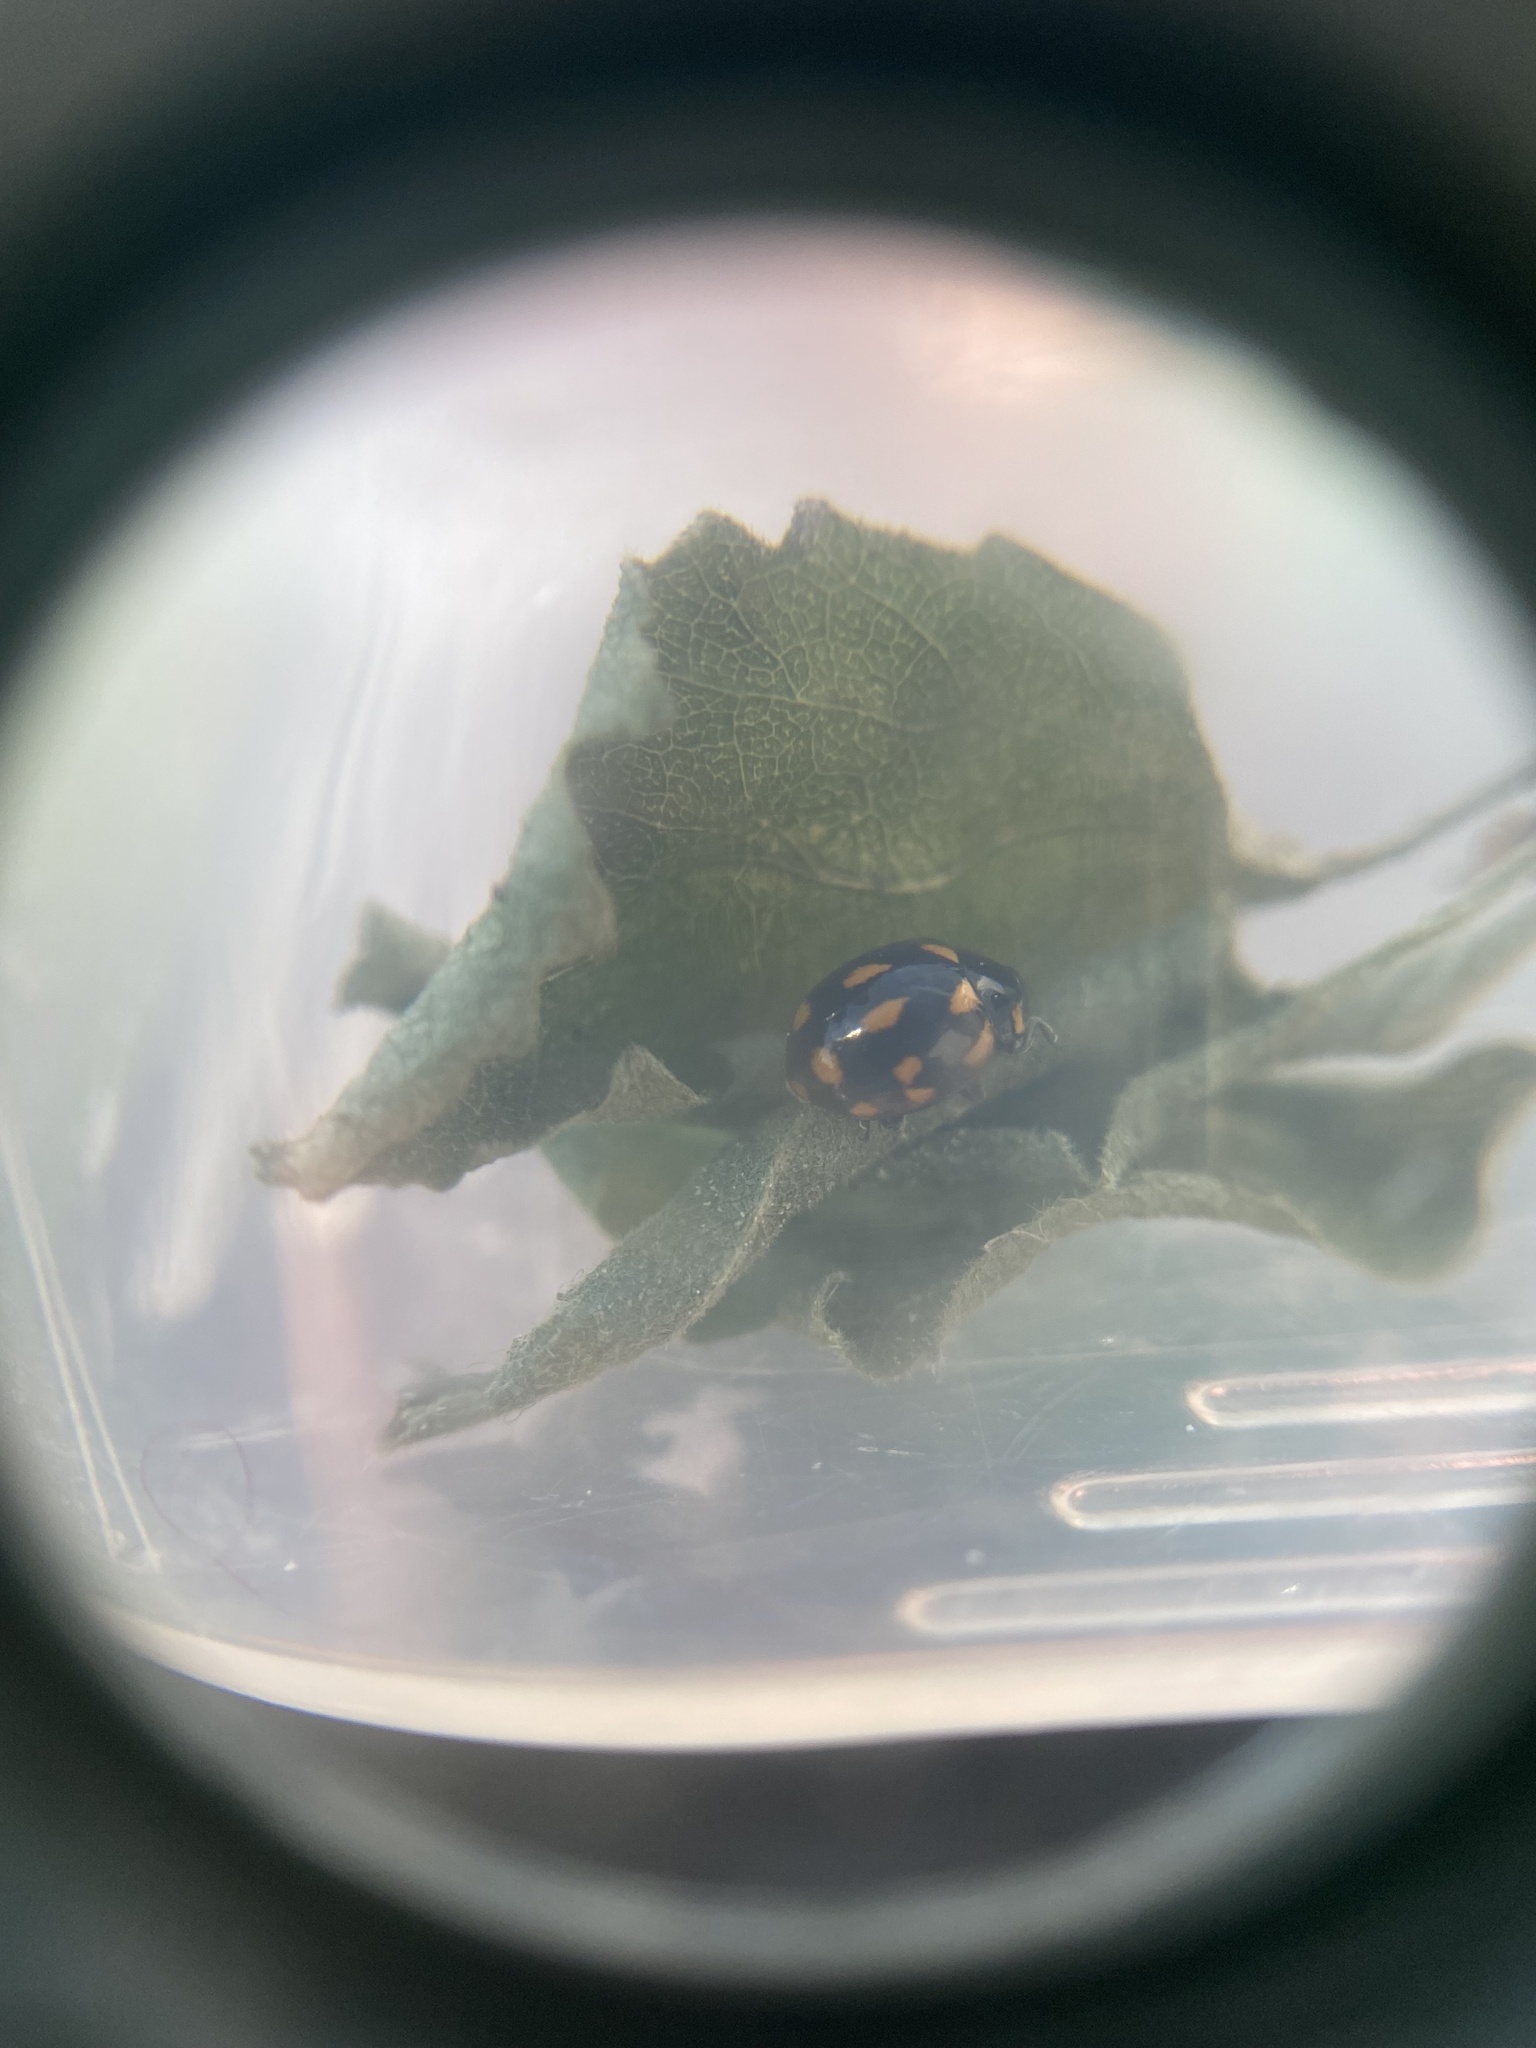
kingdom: Animalia
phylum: Arthropoda
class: Insecta
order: Coleoptera
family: Coccinellidae
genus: Coccinella
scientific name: Coccinella leonina
